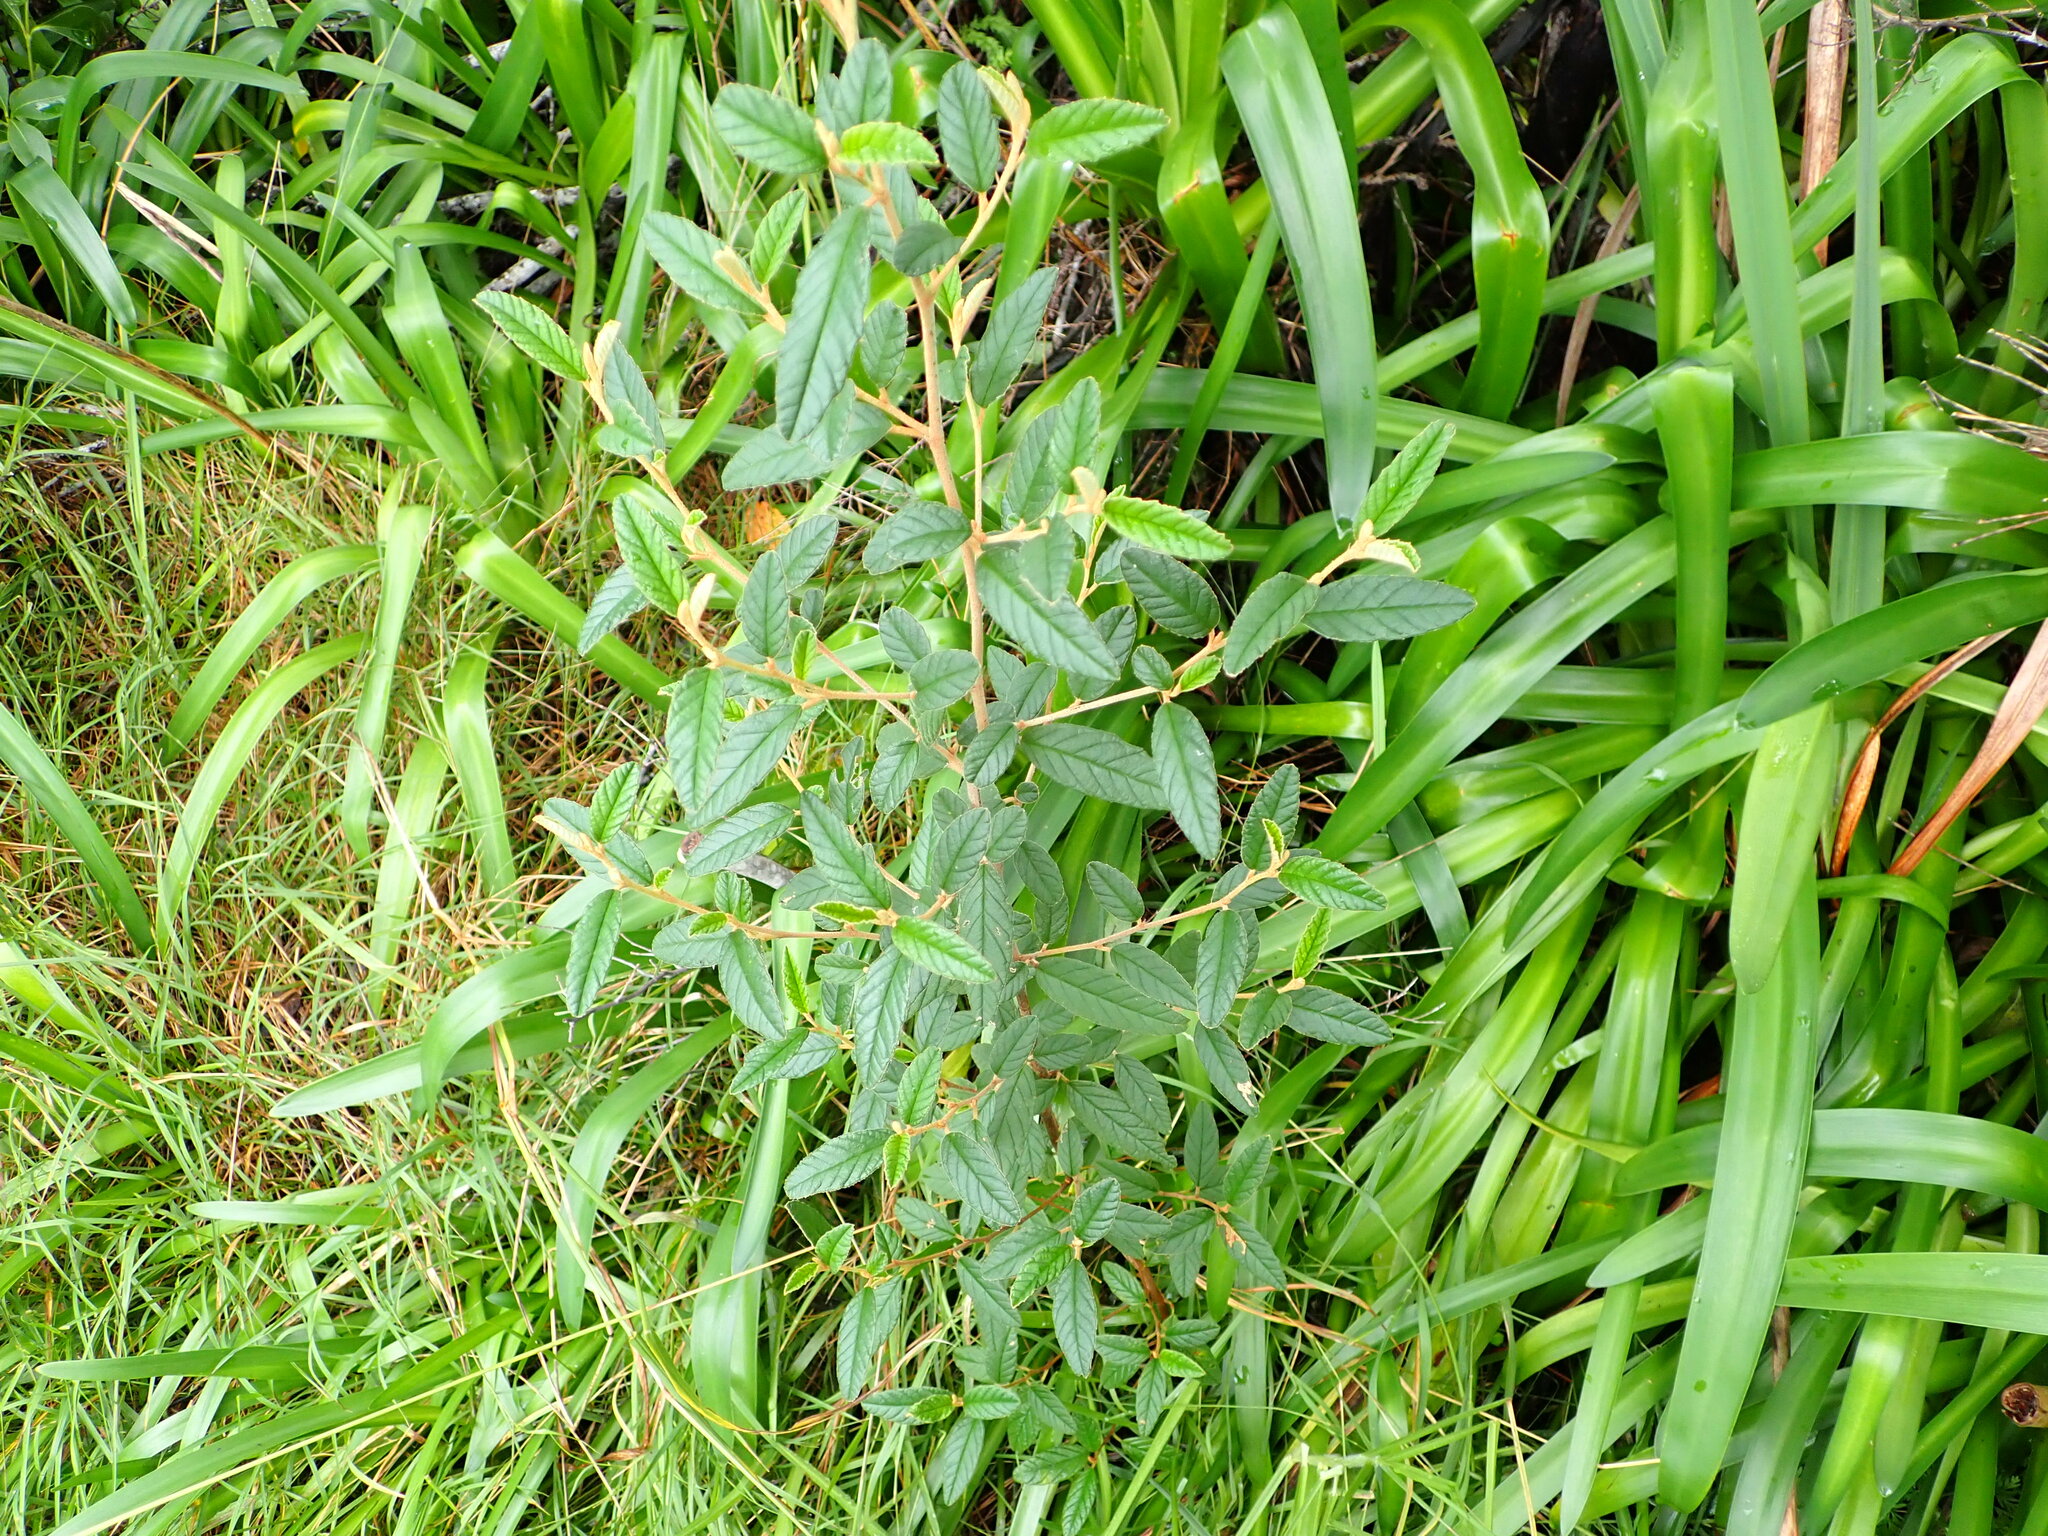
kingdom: Plantae
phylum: Tracheophyta
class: Magnoliopsida
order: Rosales
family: Rhamnaceae
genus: Pomaderris
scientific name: Pomaderris rugosa
